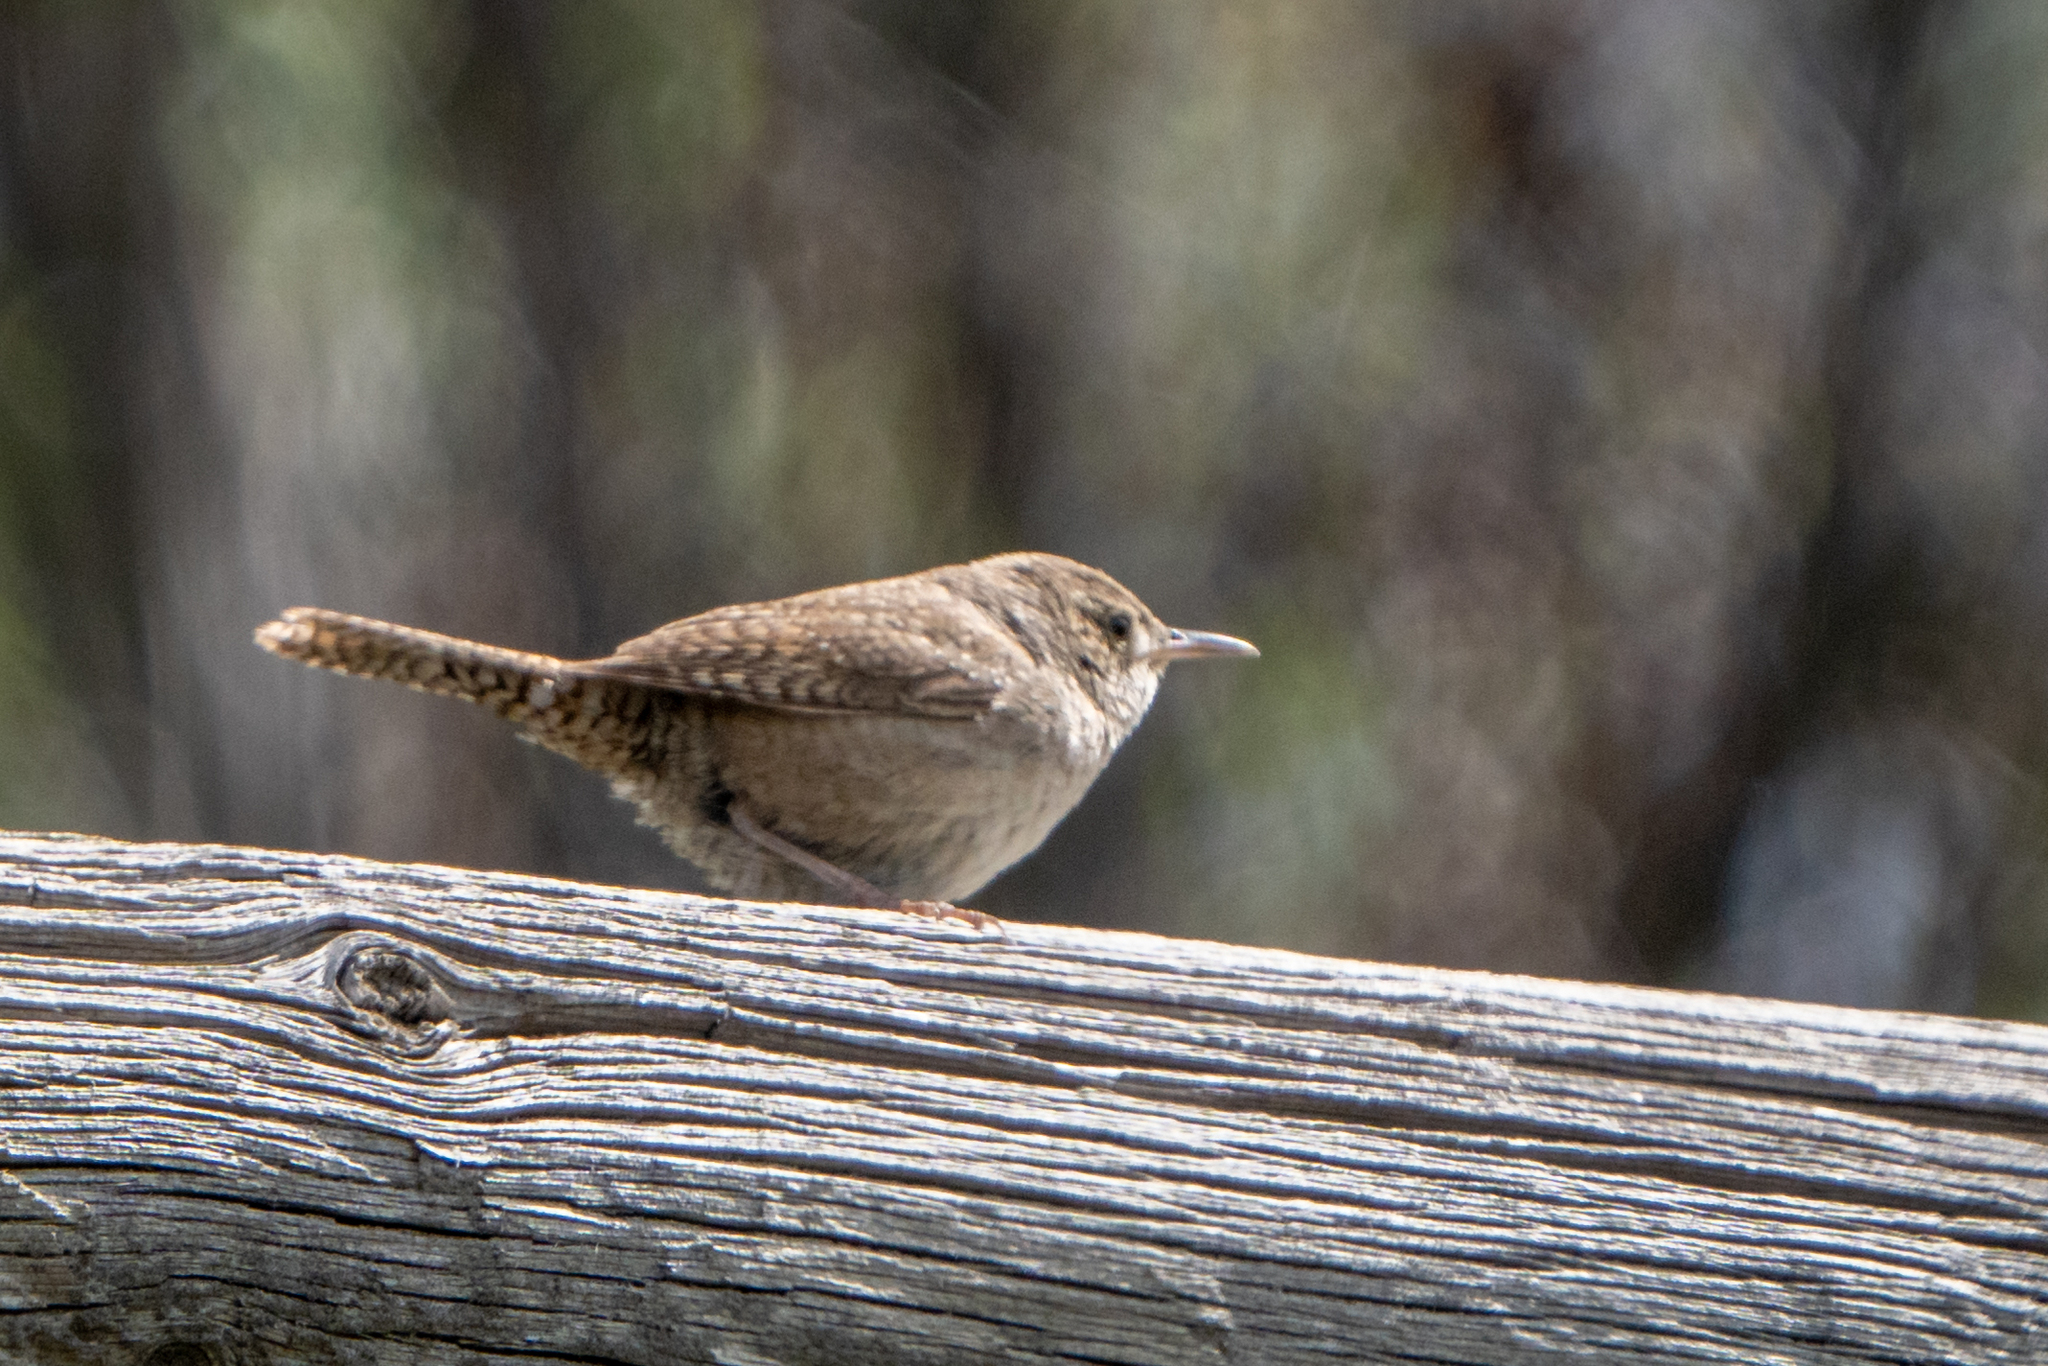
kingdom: Animalia
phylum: Chordata
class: Aves
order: Passeriformes
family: Troglodytidae
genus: Troglodytes
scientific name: Troglodytes aedon
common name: House wren
